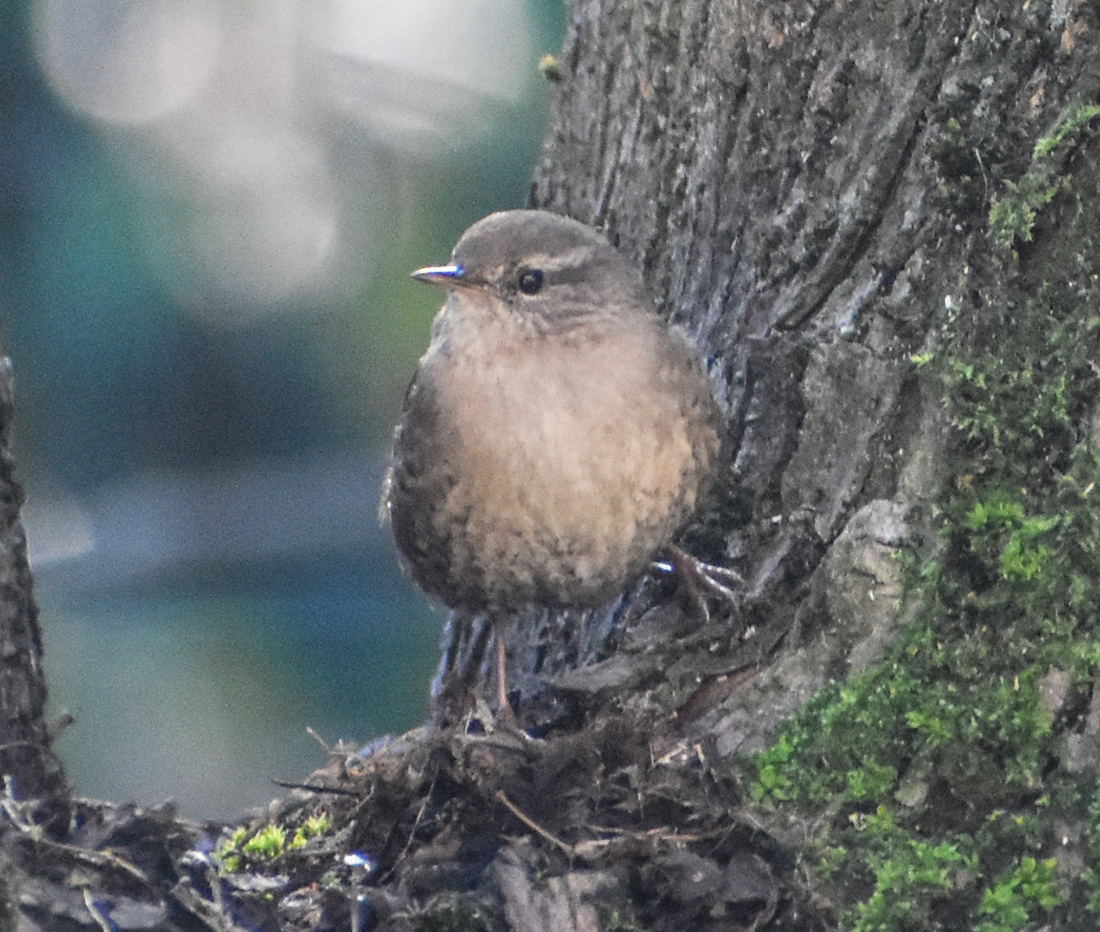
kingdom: Animalia
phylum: Chordata
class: Aves
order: Passeriformes
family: Troglodytidae
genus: Troglodytes
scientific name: Troglodytes troglodytes
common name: Eurasian wren
